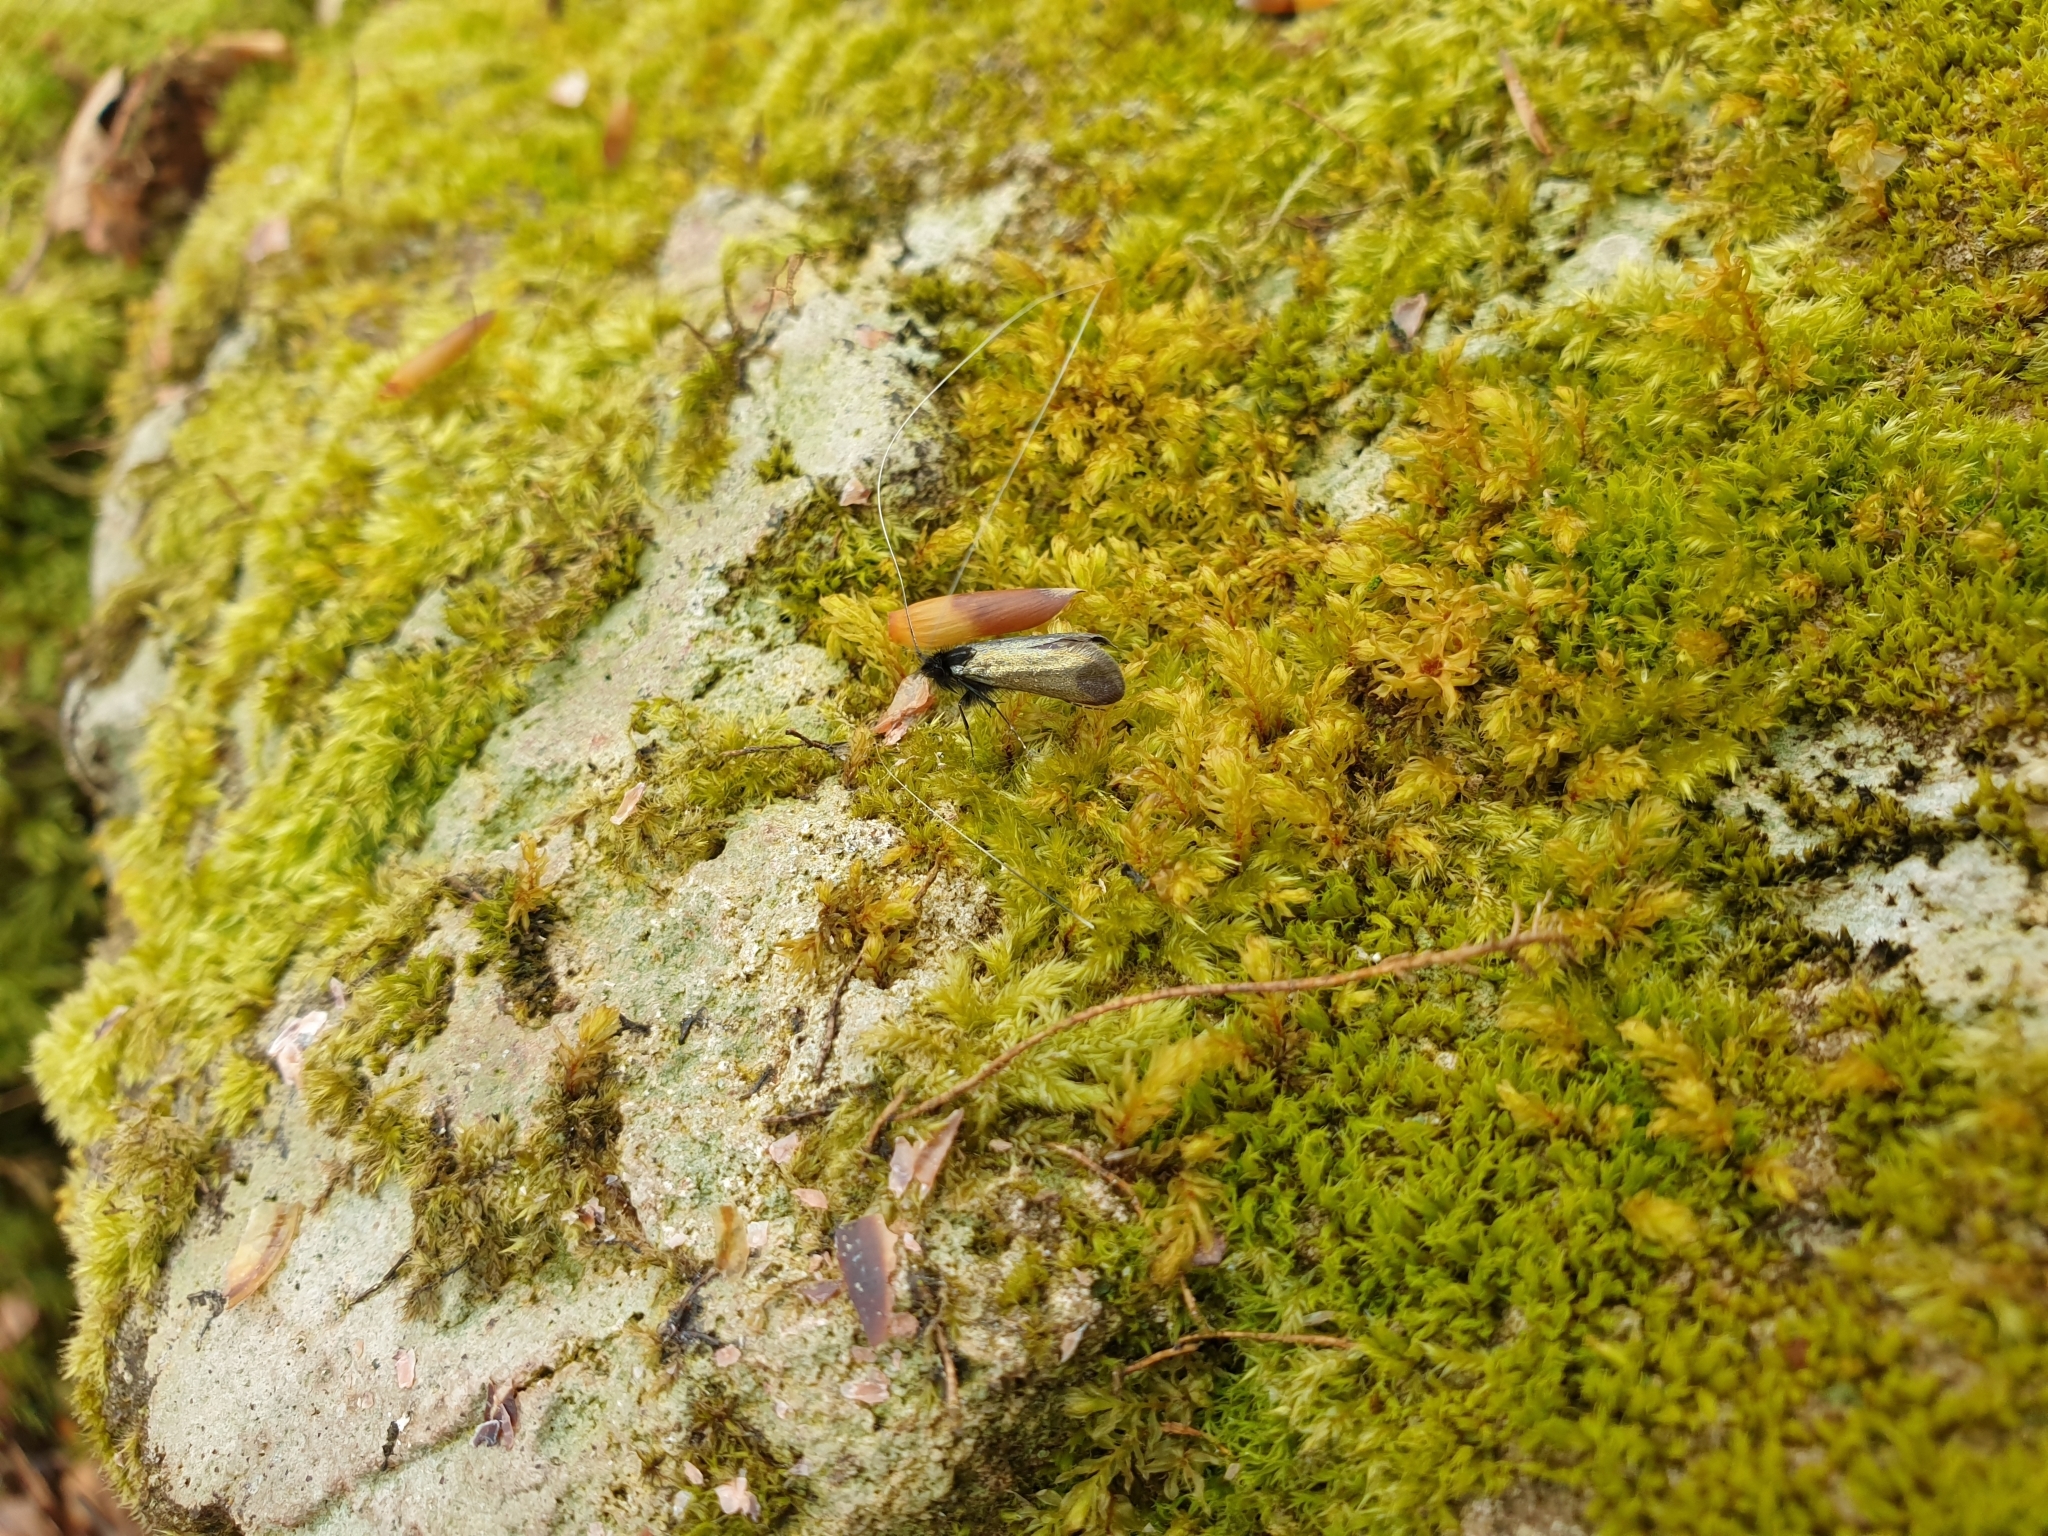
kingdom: Animalia
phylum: Arthropoda
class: Insecta
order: Lepidoptera
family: Adelidae
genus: Adela
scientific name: Adela viridella
